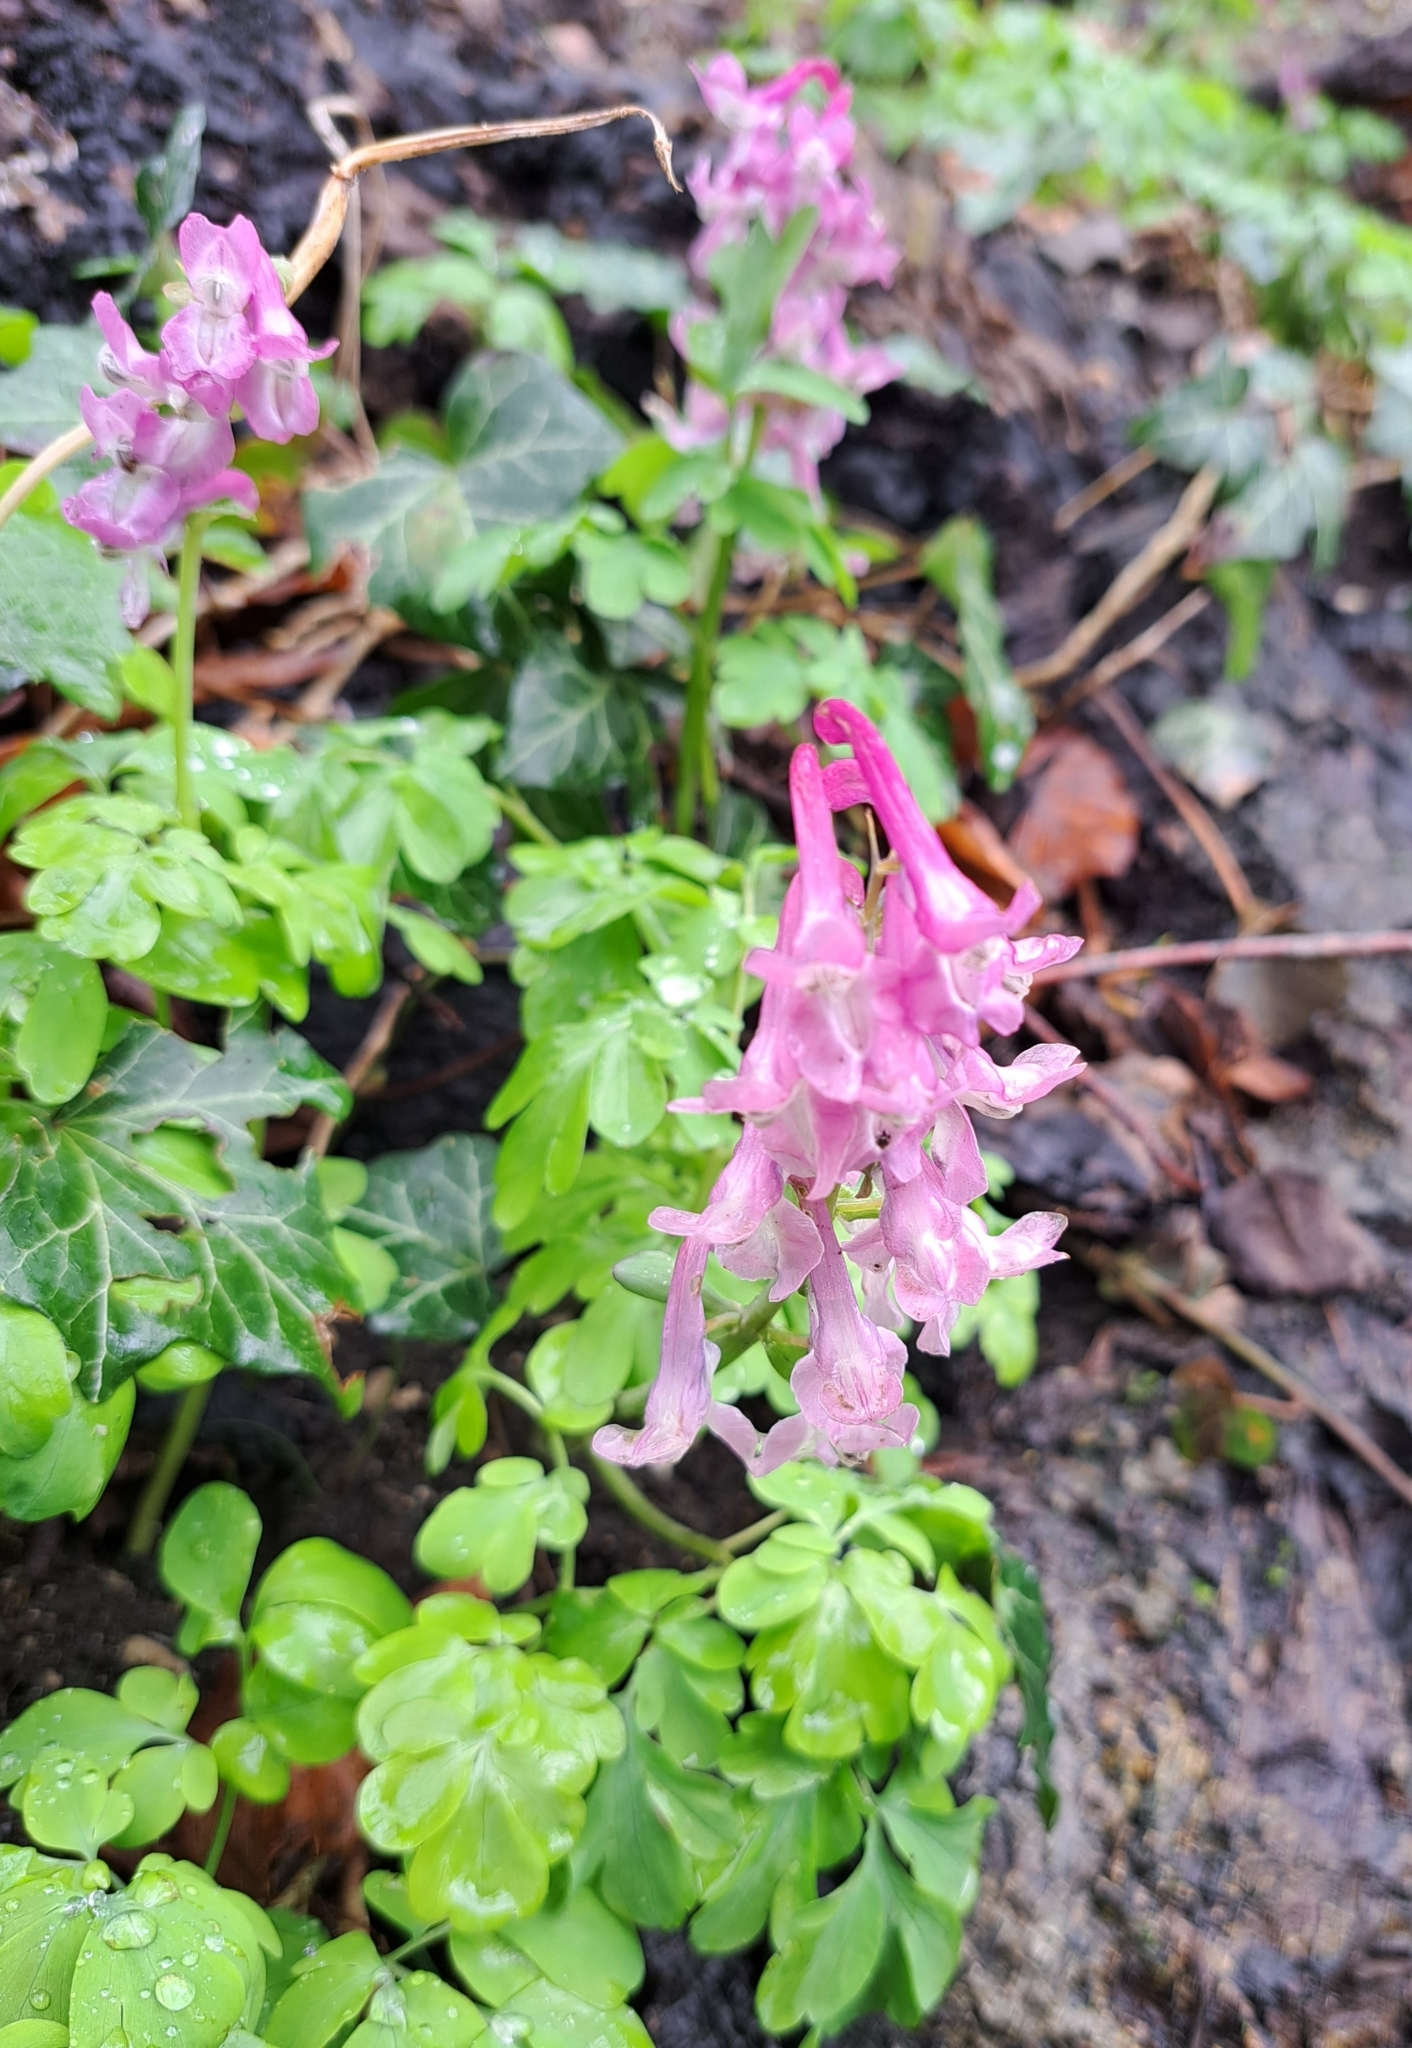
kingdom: Plantae
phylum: Tracheophyta
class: Magnoliopsida
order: Ranunculales
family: Papaveraceae
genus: Corydalis
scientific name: Corydalis cava
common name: Hollowroot
